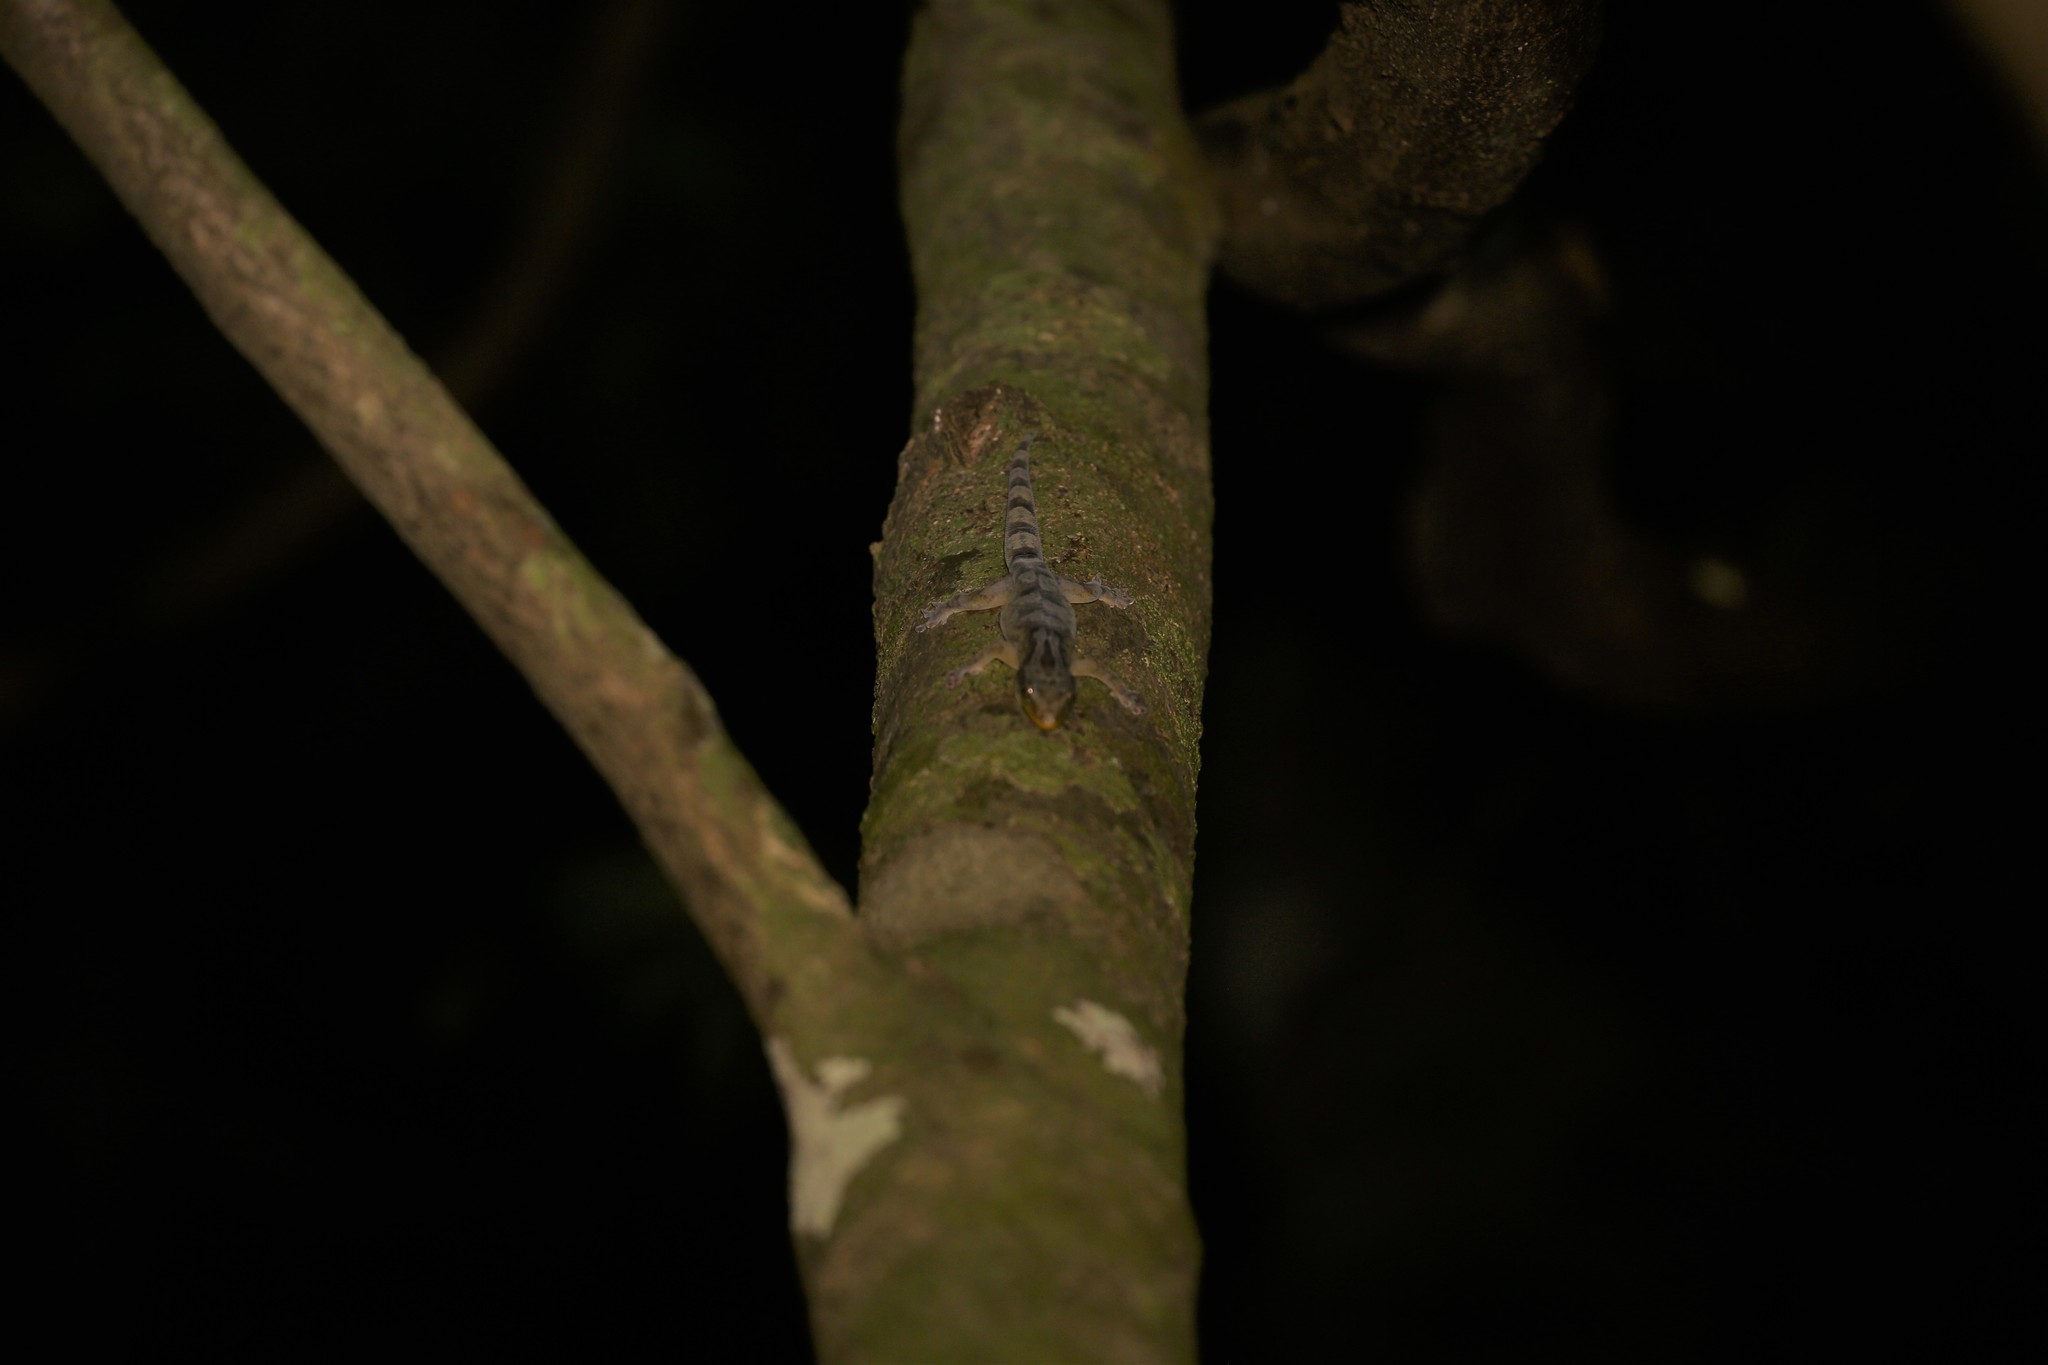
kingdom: Animalia
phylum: Chordata
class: Squamata
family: Diplodactylidae
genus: Bavayia
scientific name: Bavayia crassicollis
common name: Strand bavayia
